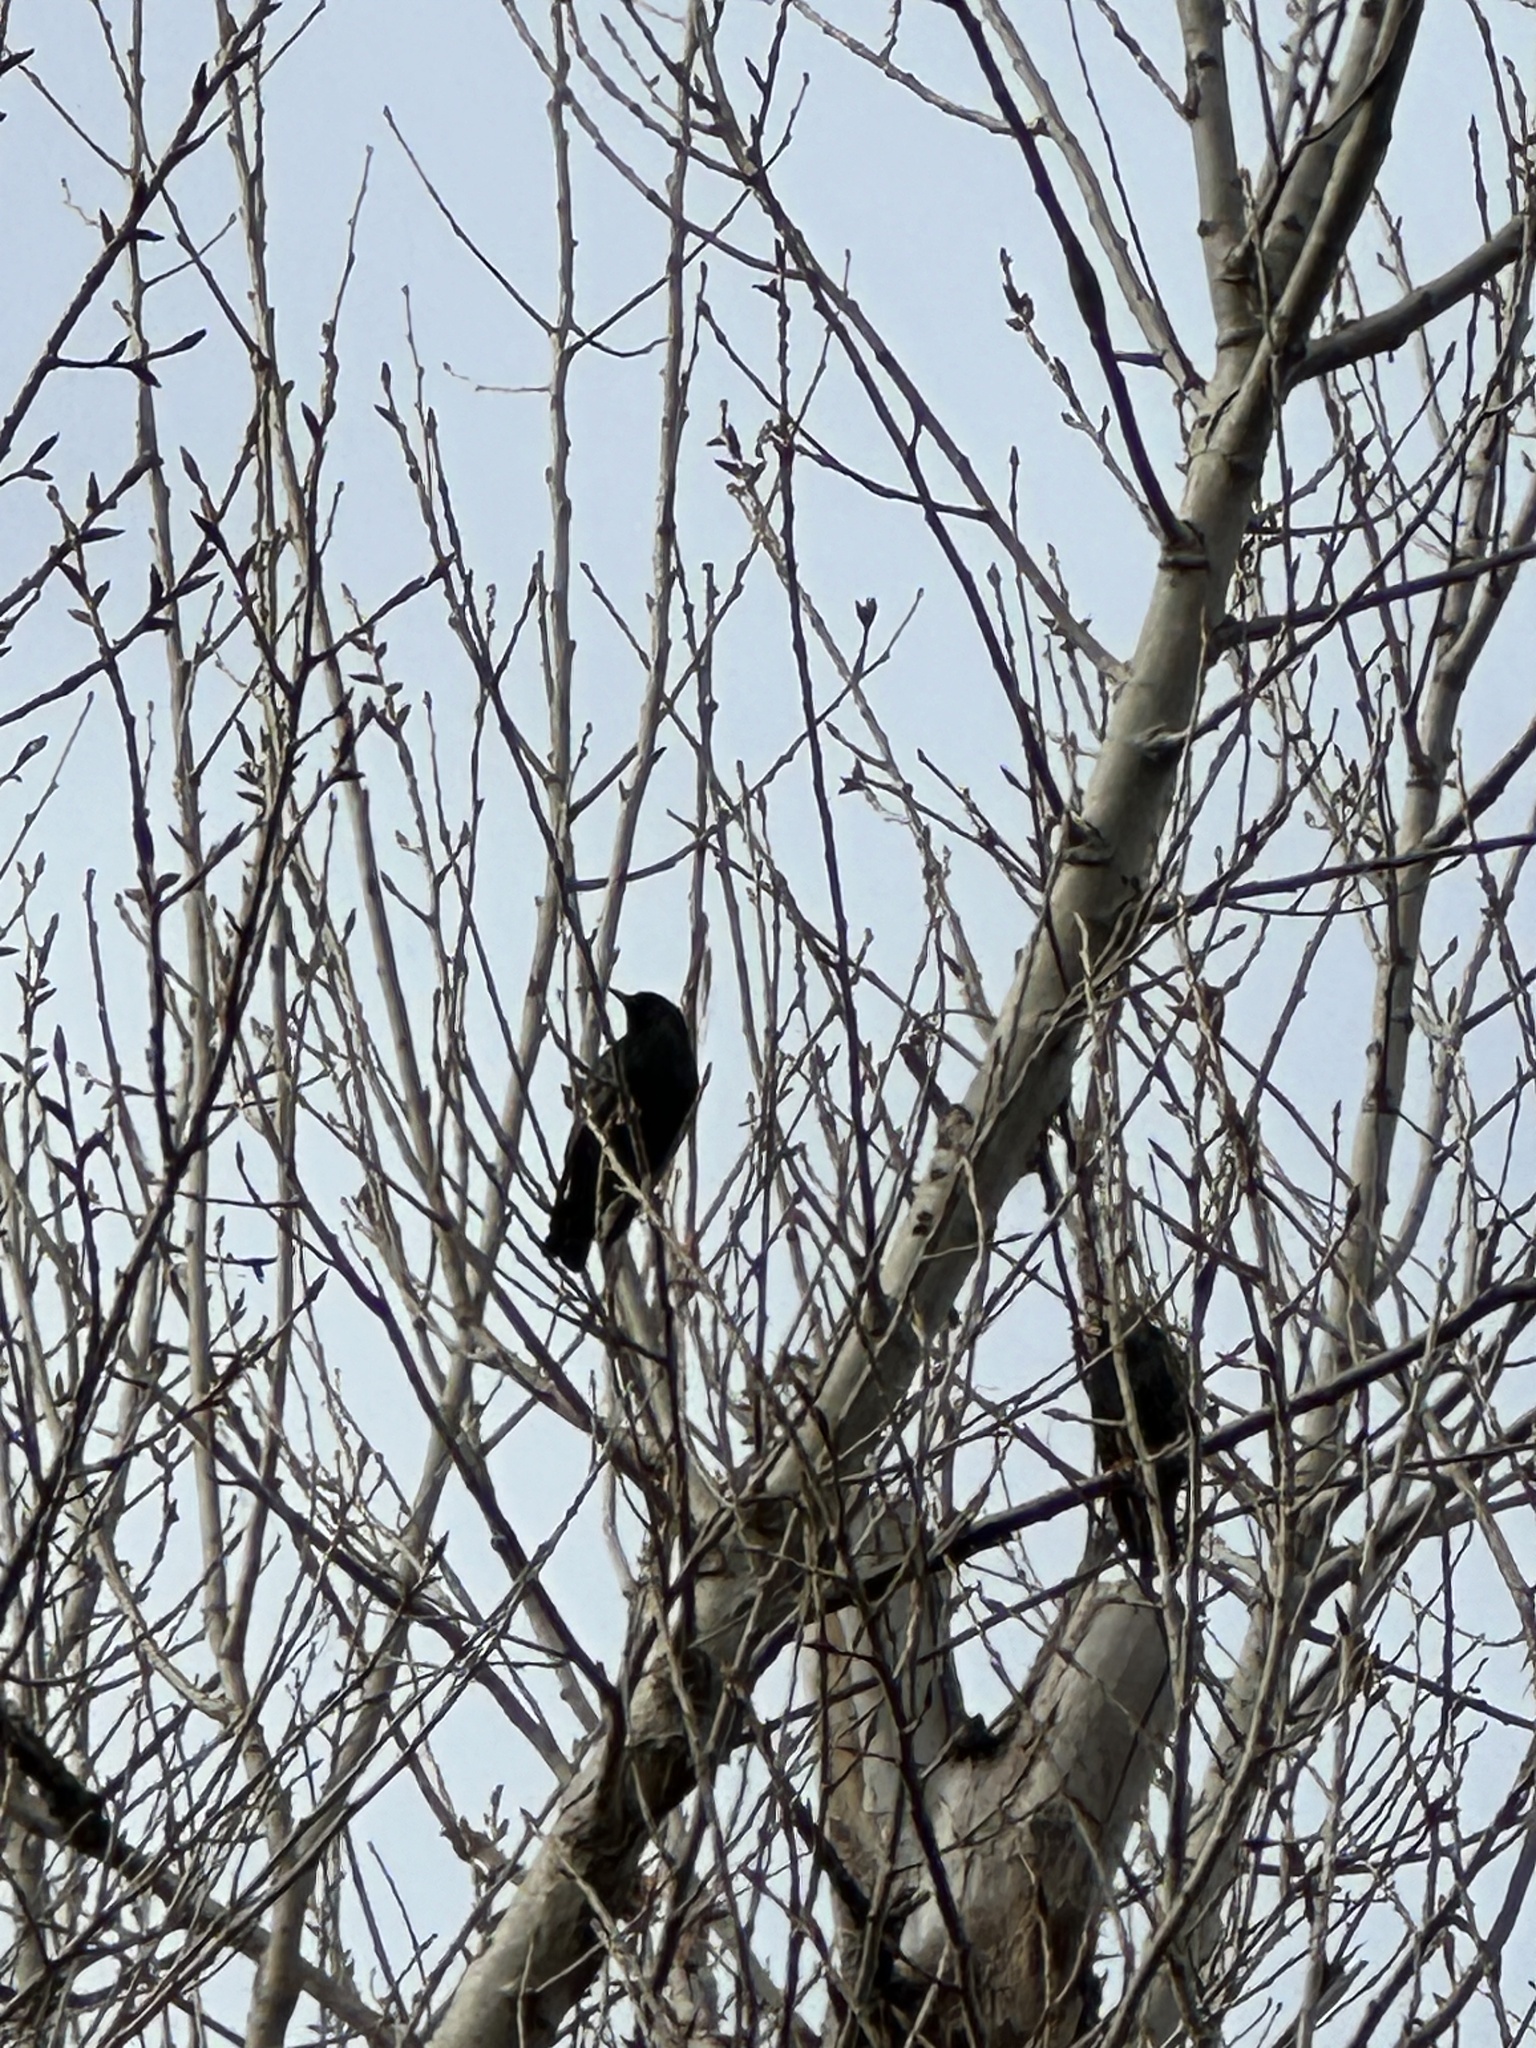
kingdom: Animalia
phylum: Chordata
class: Aves
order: Passeriformes
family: Sturnidae
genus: Sturnus
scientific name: Sturnus vulgaris
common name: Common starling
